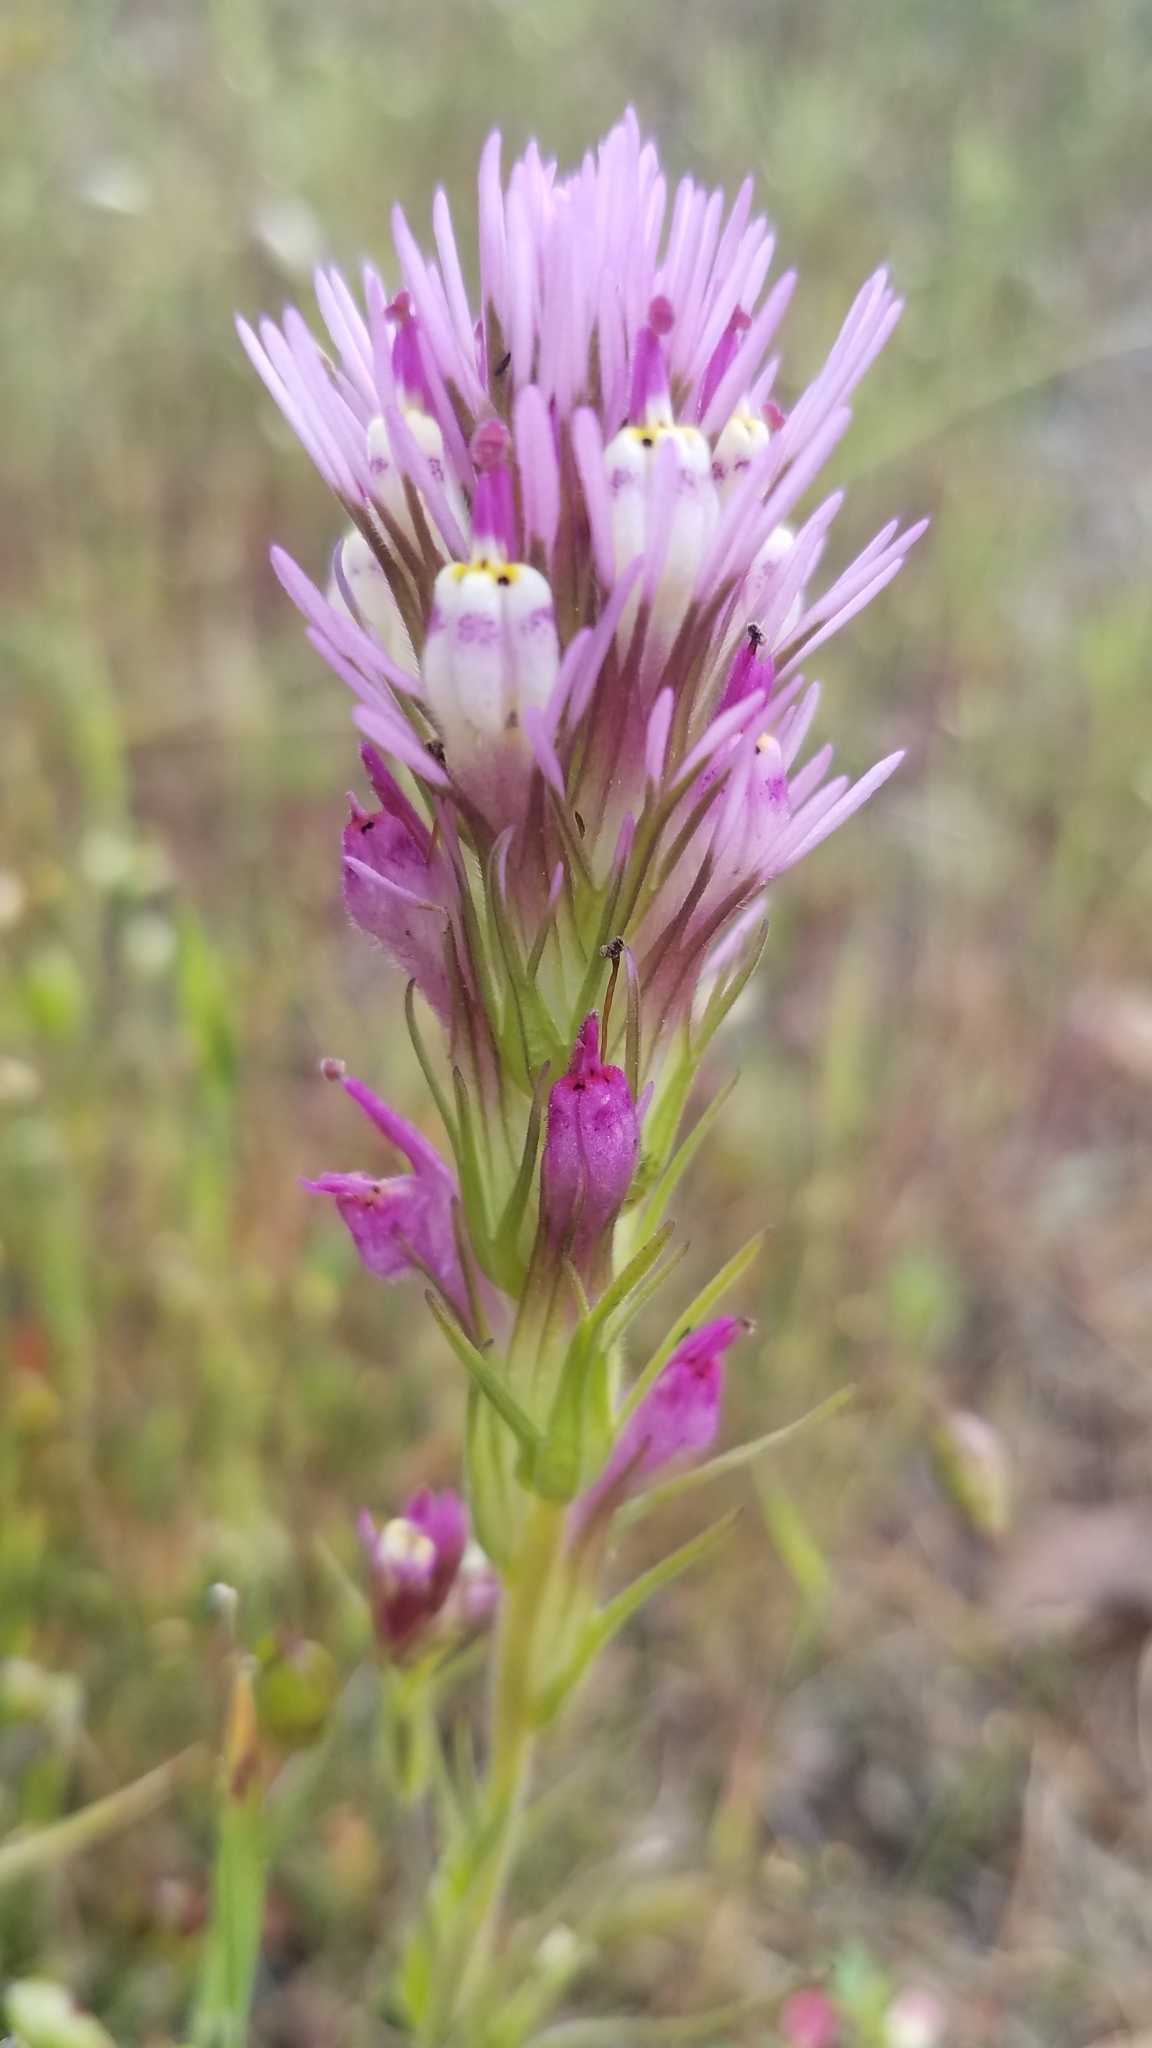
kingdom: Plantae
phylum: Tracheophyta
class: Magnoliopsida
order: Lamiales
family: Orobanchaceae
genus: Castilleja
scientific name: Castilleja densiflora
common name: Dense-flower indian paintbrush
